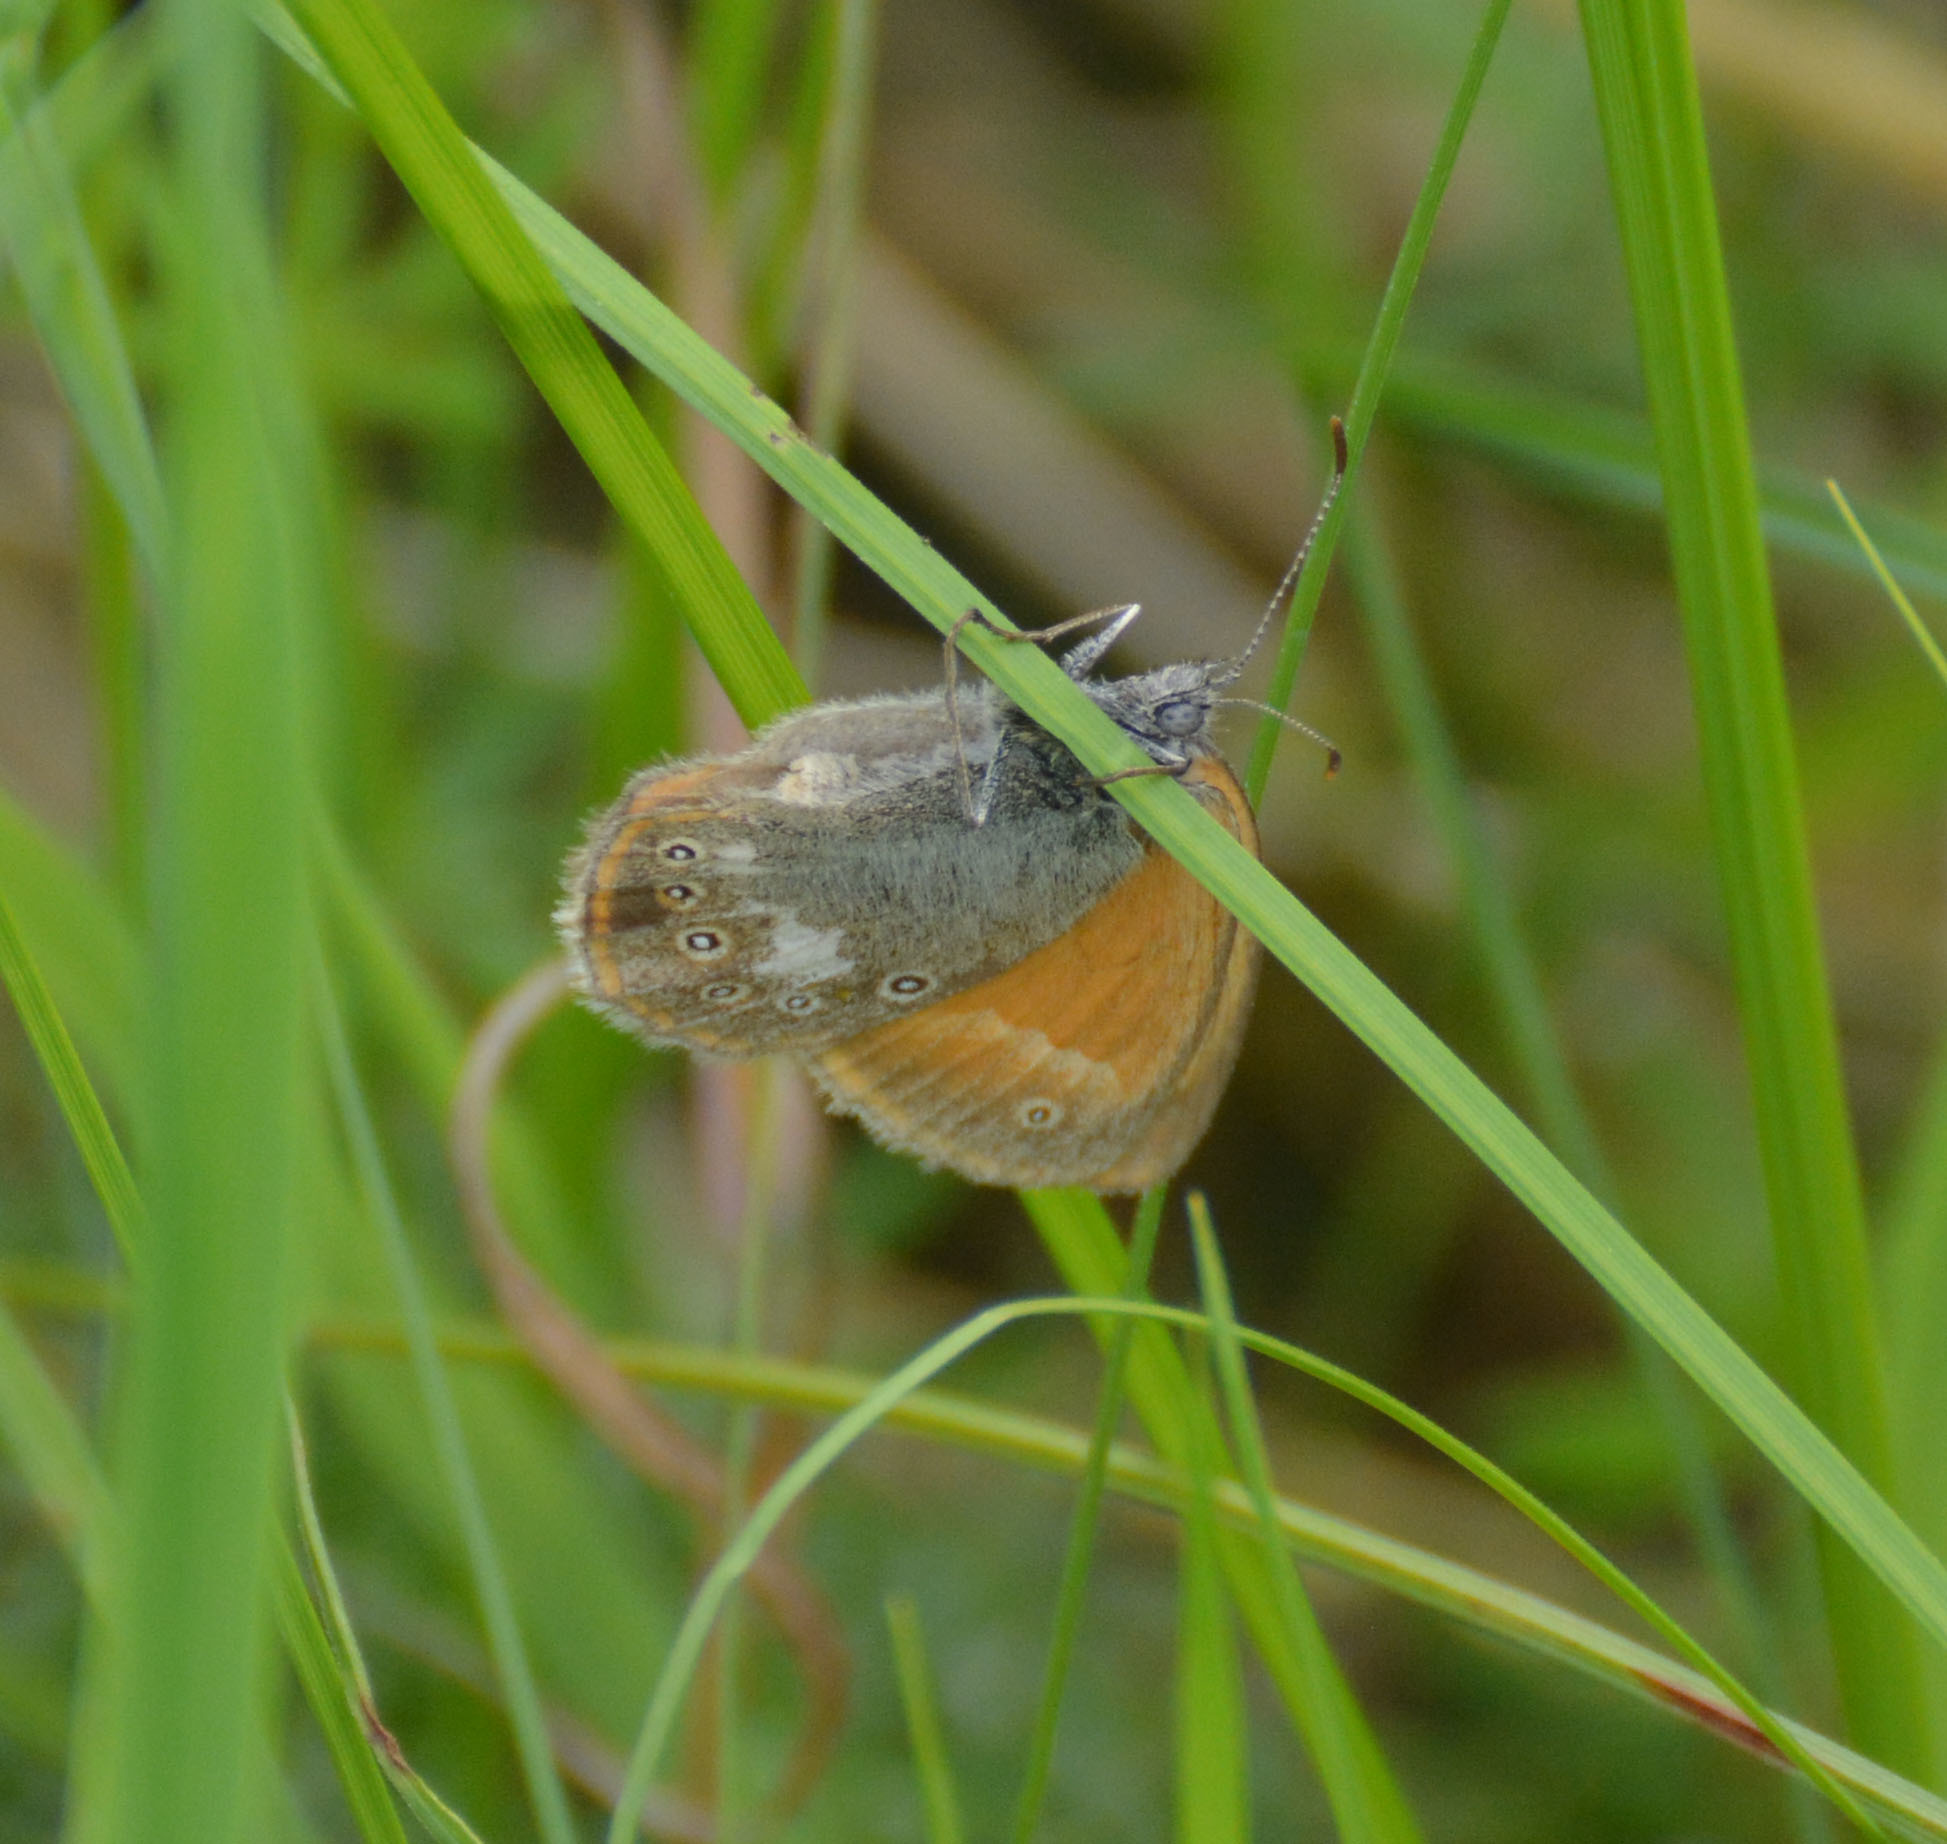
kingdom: Animalia
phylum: Arthropoda
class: Insecta
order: Lepidoptera
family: Nymphalidae
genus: Coenonympha
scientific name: Coenonympha iphis
